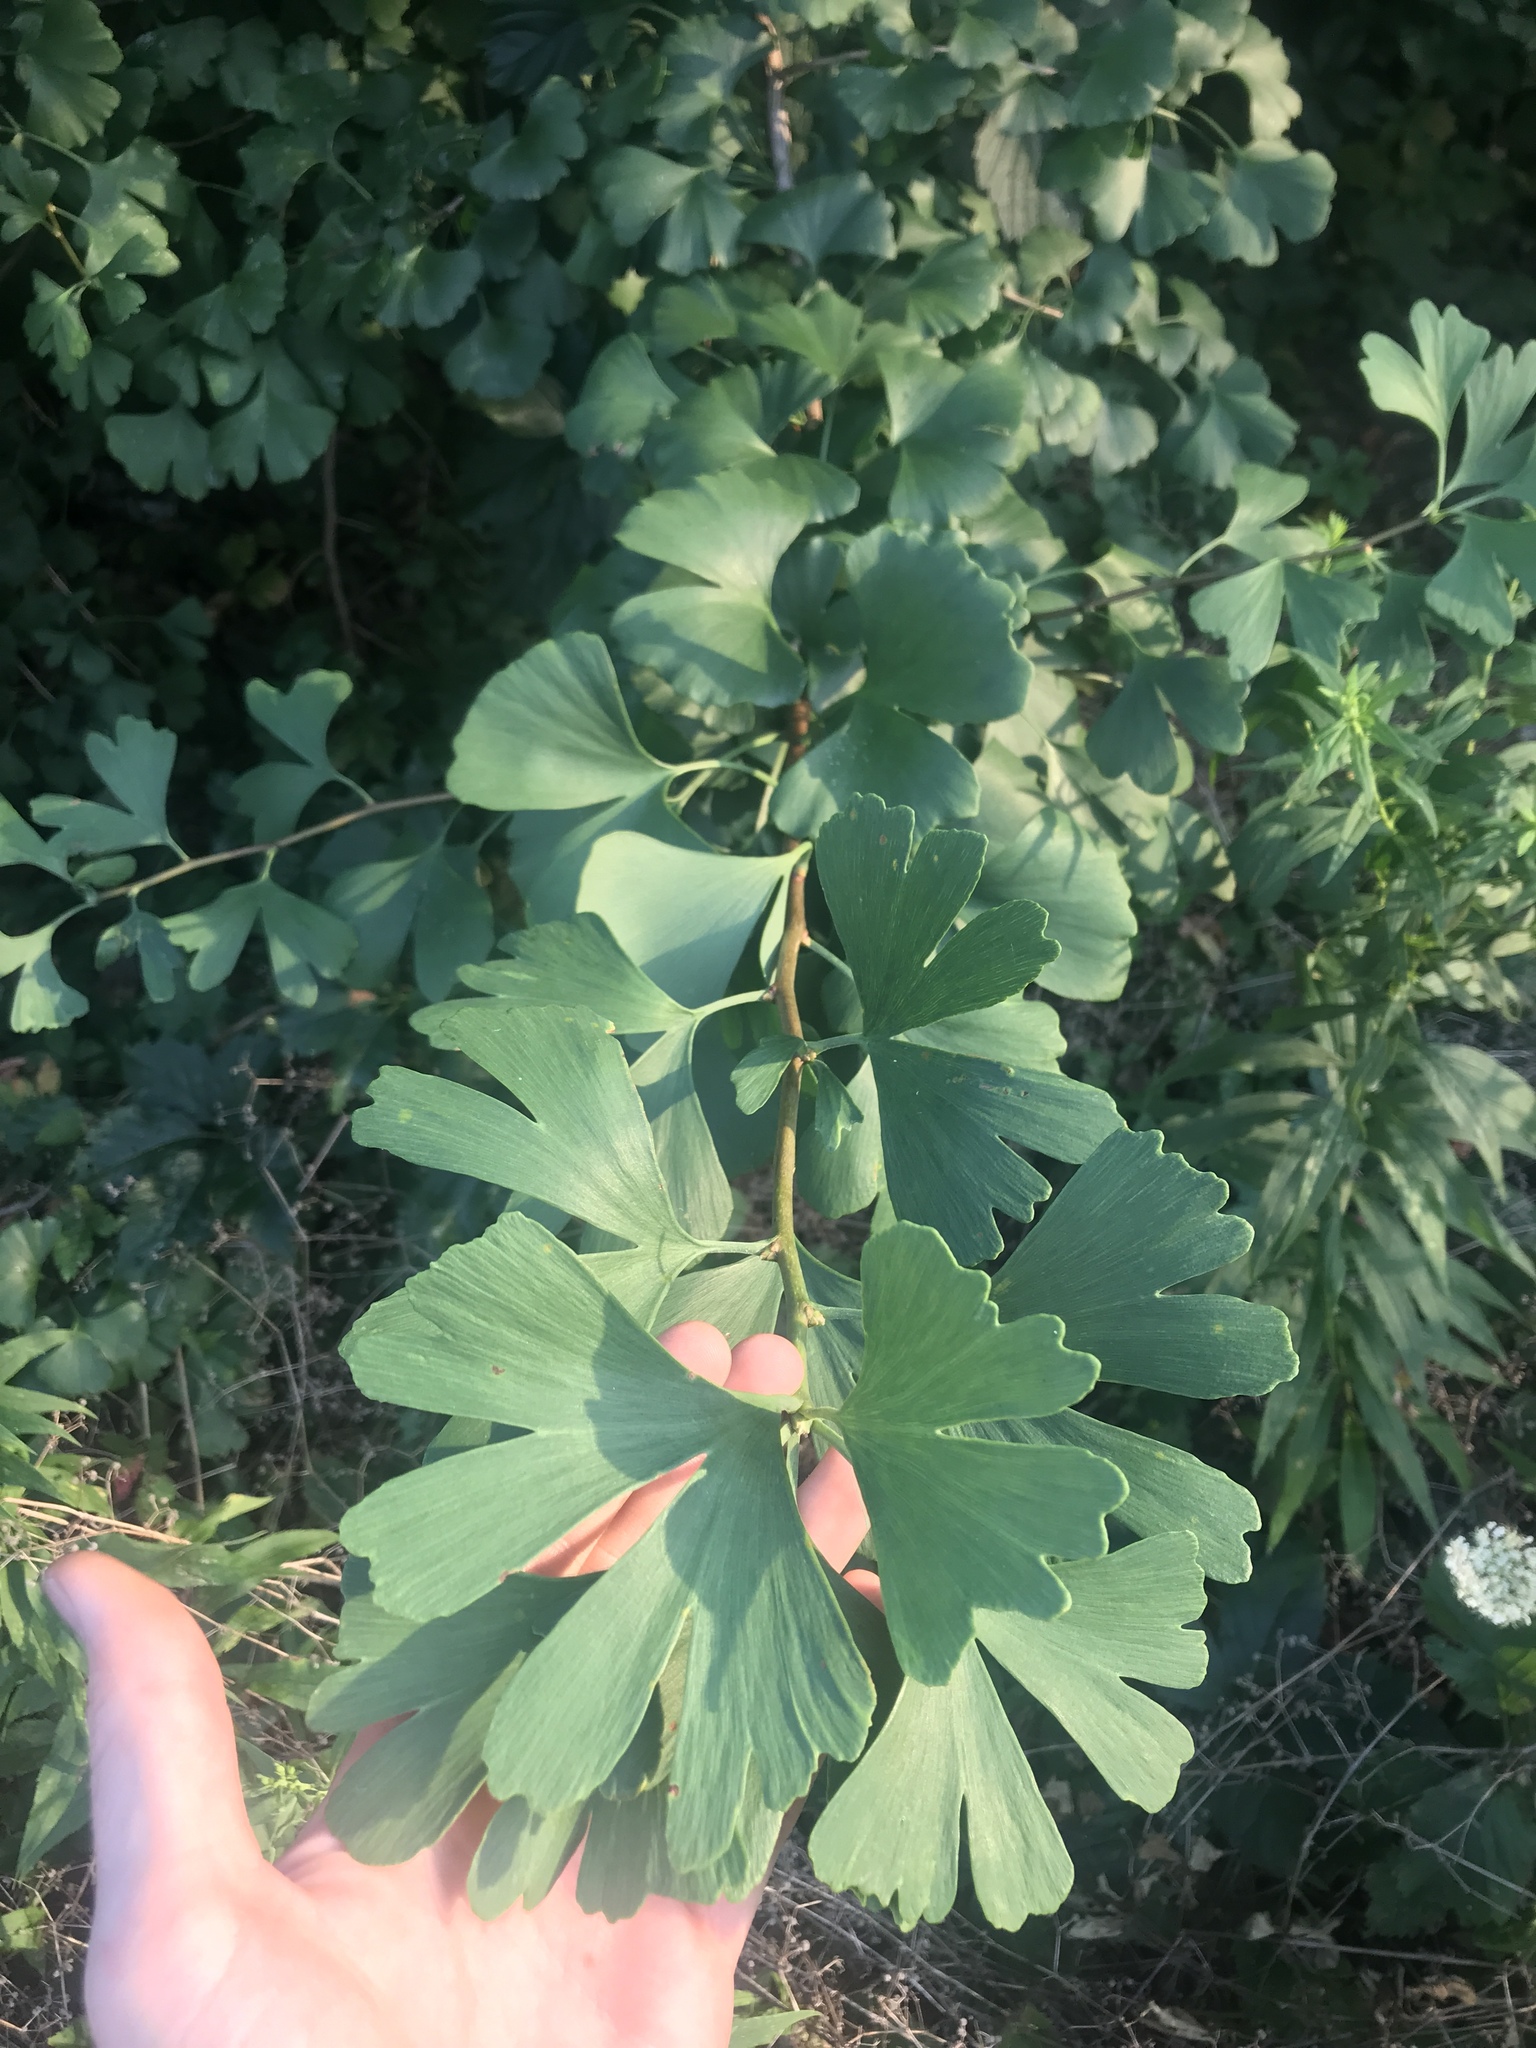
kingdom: Plantae
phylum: Tracheophyta
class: Ginkgoopsida
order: Ginkgoales
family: Ginkgoaceae
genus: Ginkgo
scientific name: Ginkgo biloba
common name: Ginkgo
